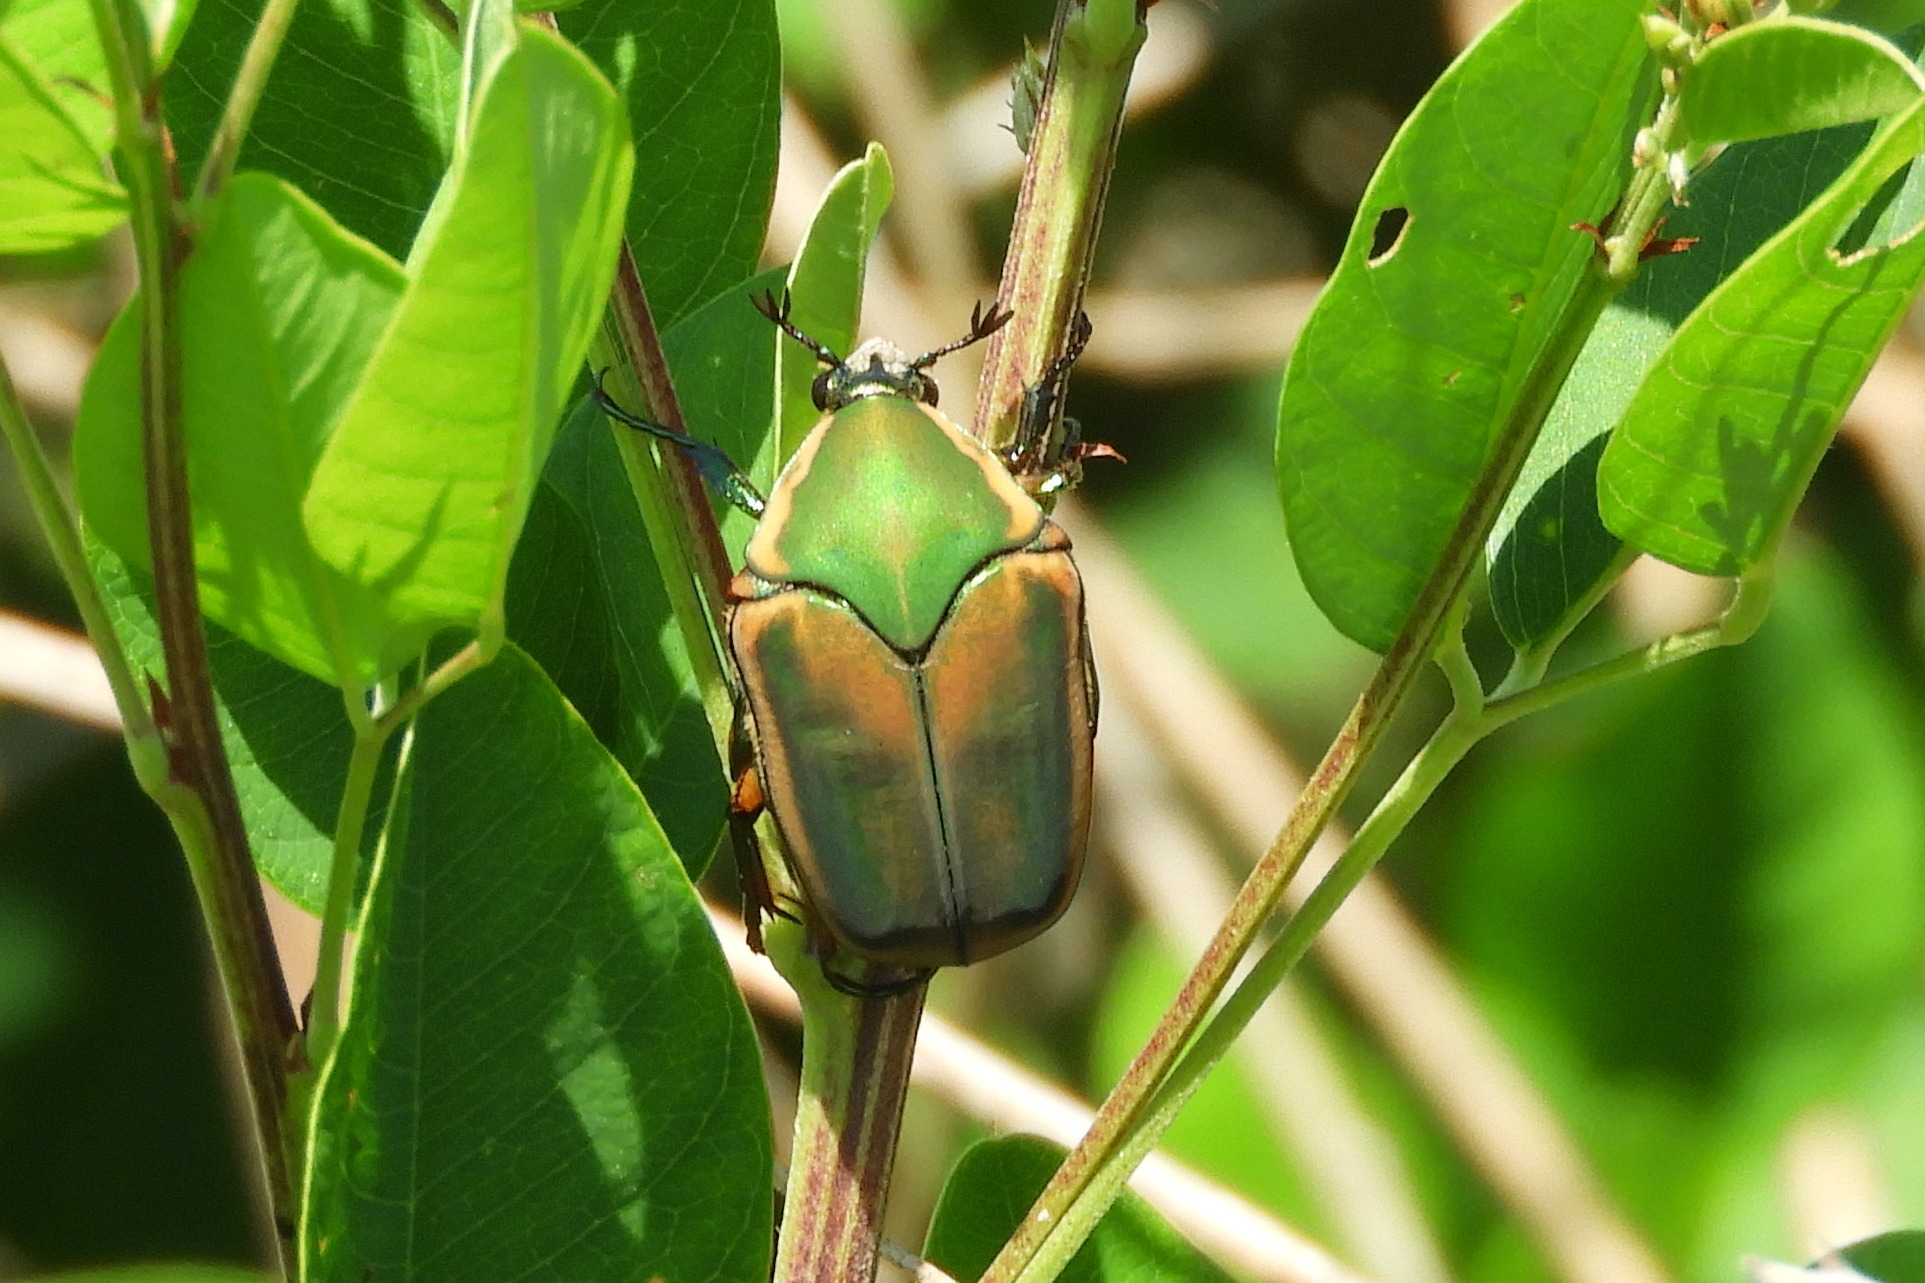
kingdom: Animalia
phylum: Arthropoda
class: Insecta
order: Coleoptera
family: Scarabaeidae
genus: Cotinis
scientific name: Cotinis nitida
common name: Common green june beetle
